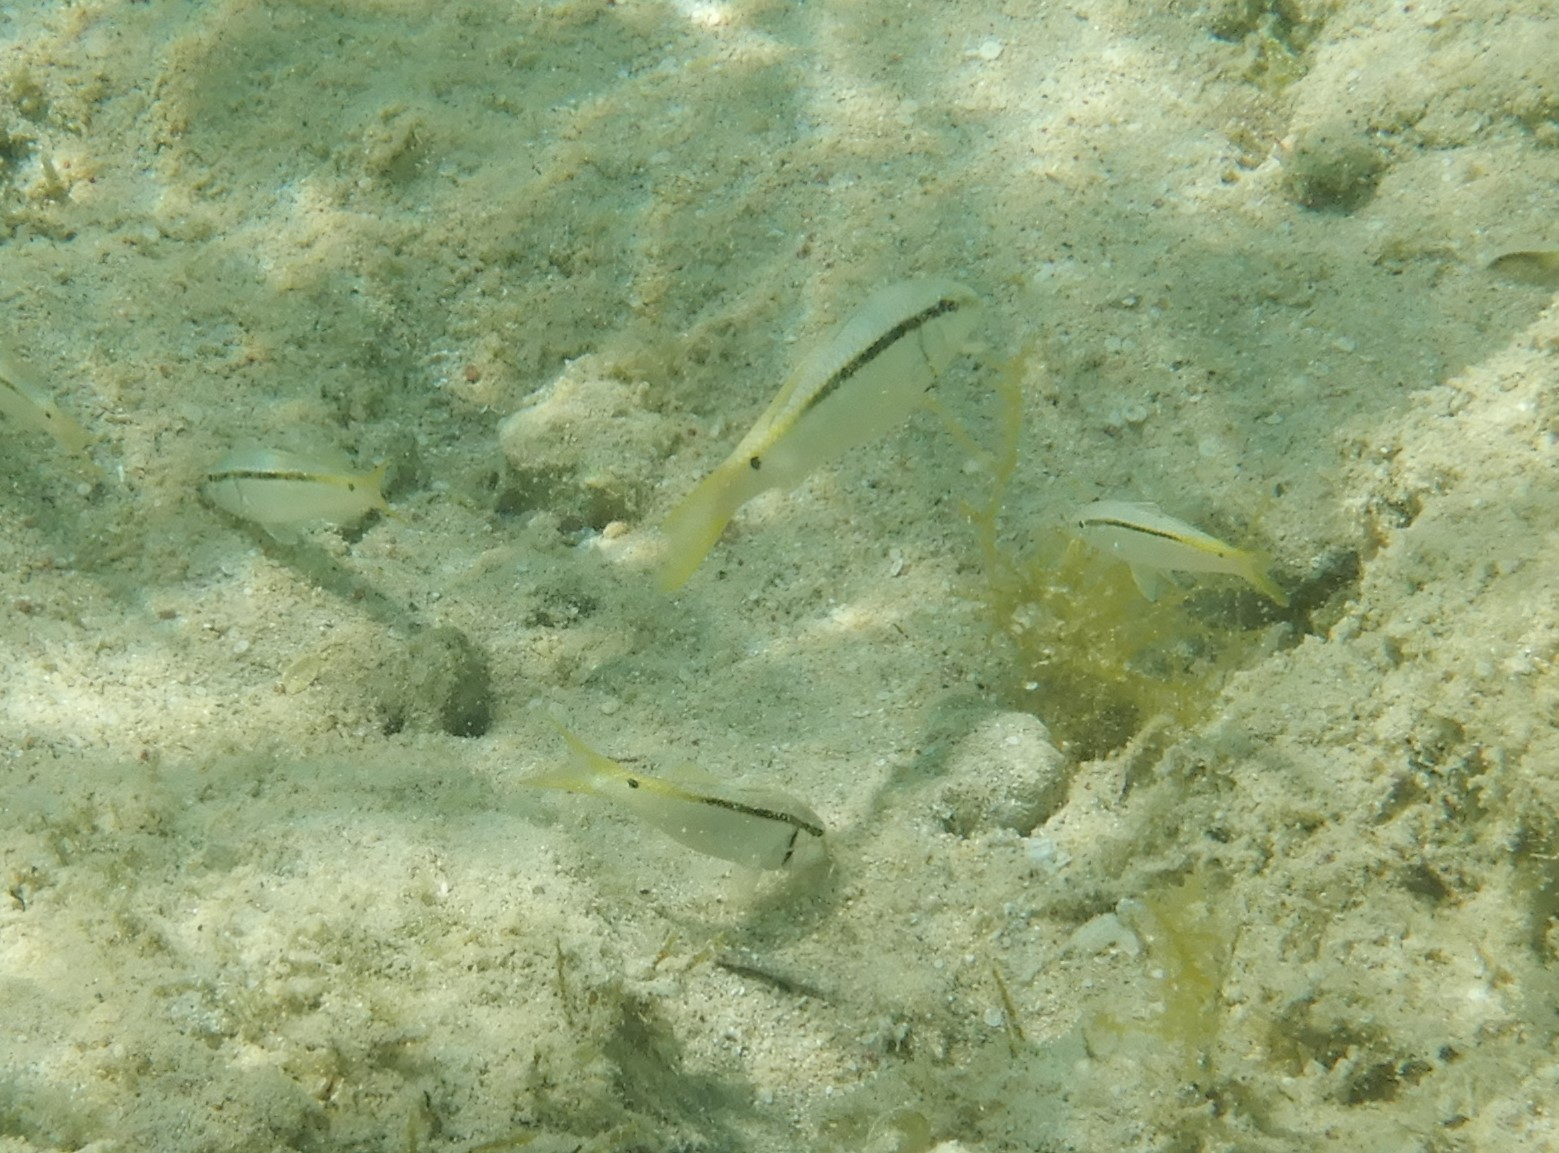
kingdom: Animalia
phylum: Chordata
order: Perciformes
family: Mullidae
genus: Parupeneus
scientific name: Parupeneus forsskali
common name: Red sea goatfish
